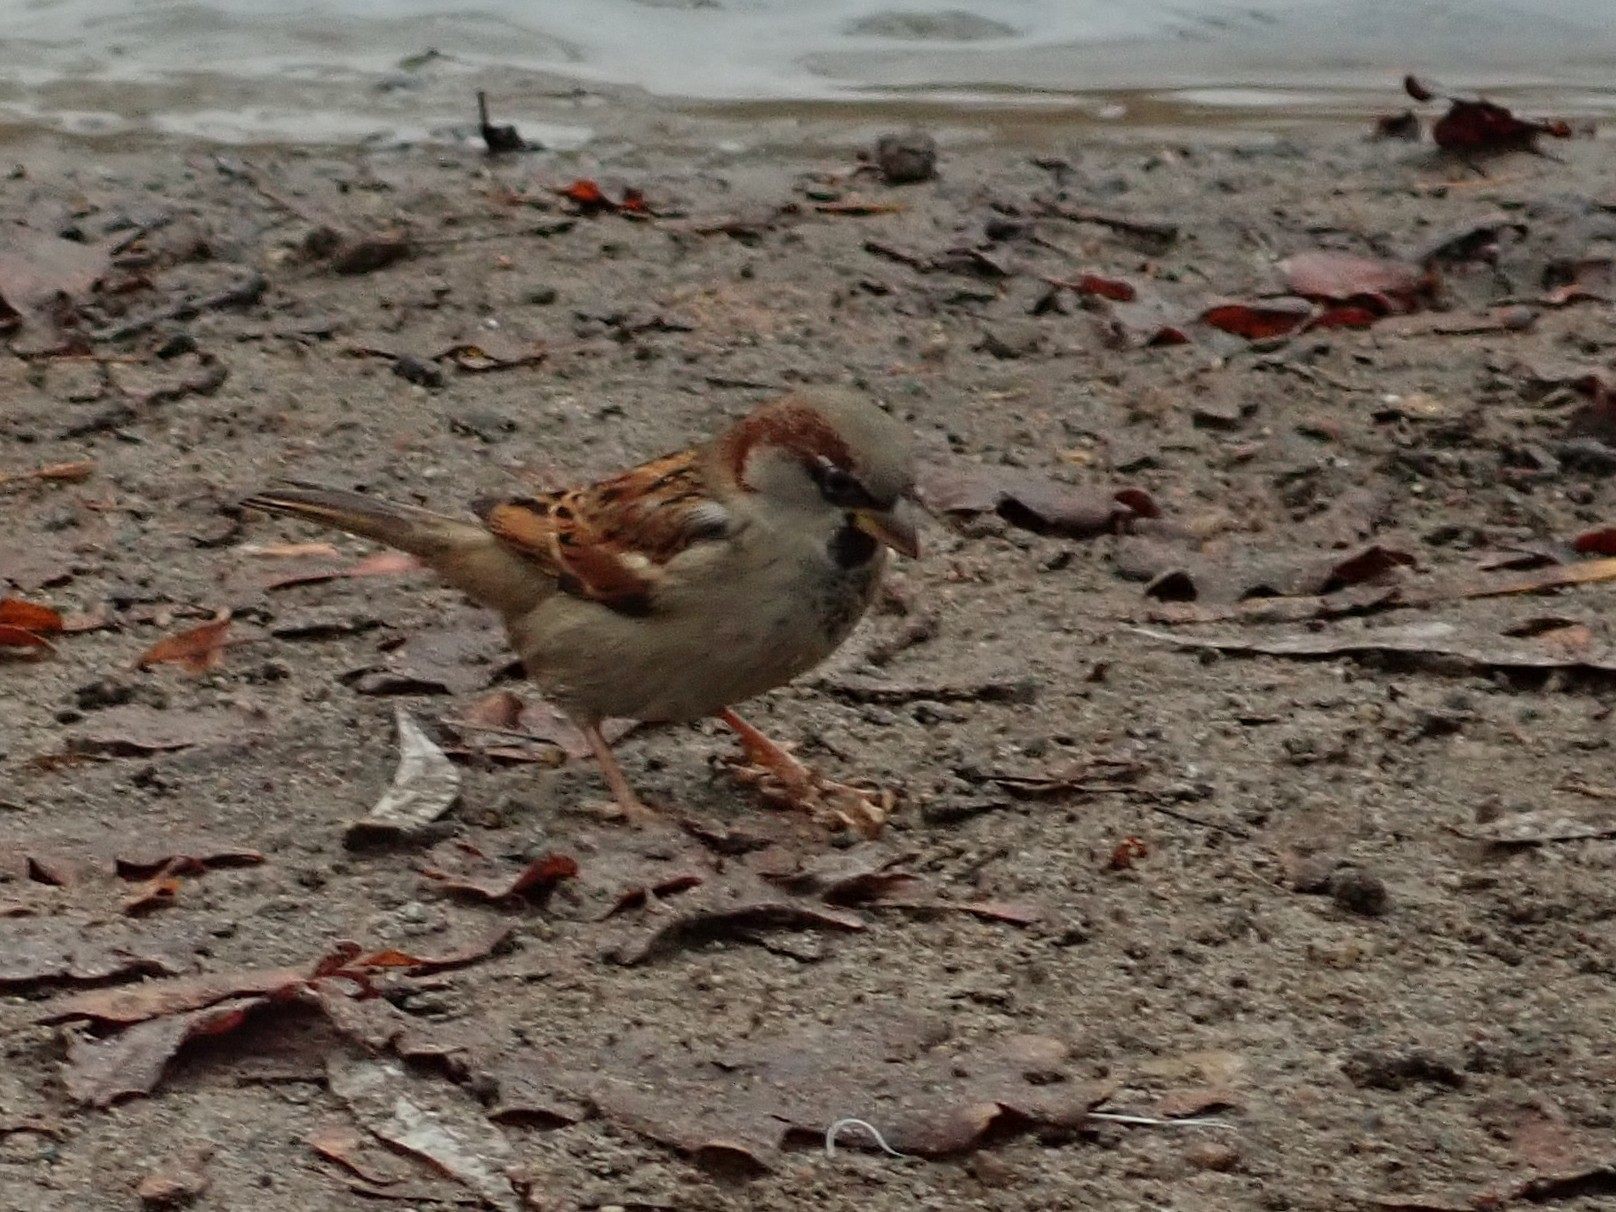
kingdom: Animalia
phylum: Chordata
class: Aves
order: Passeriformes
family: Passeridae
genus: Passer
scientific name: Passer domesticus
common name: House sparrow
